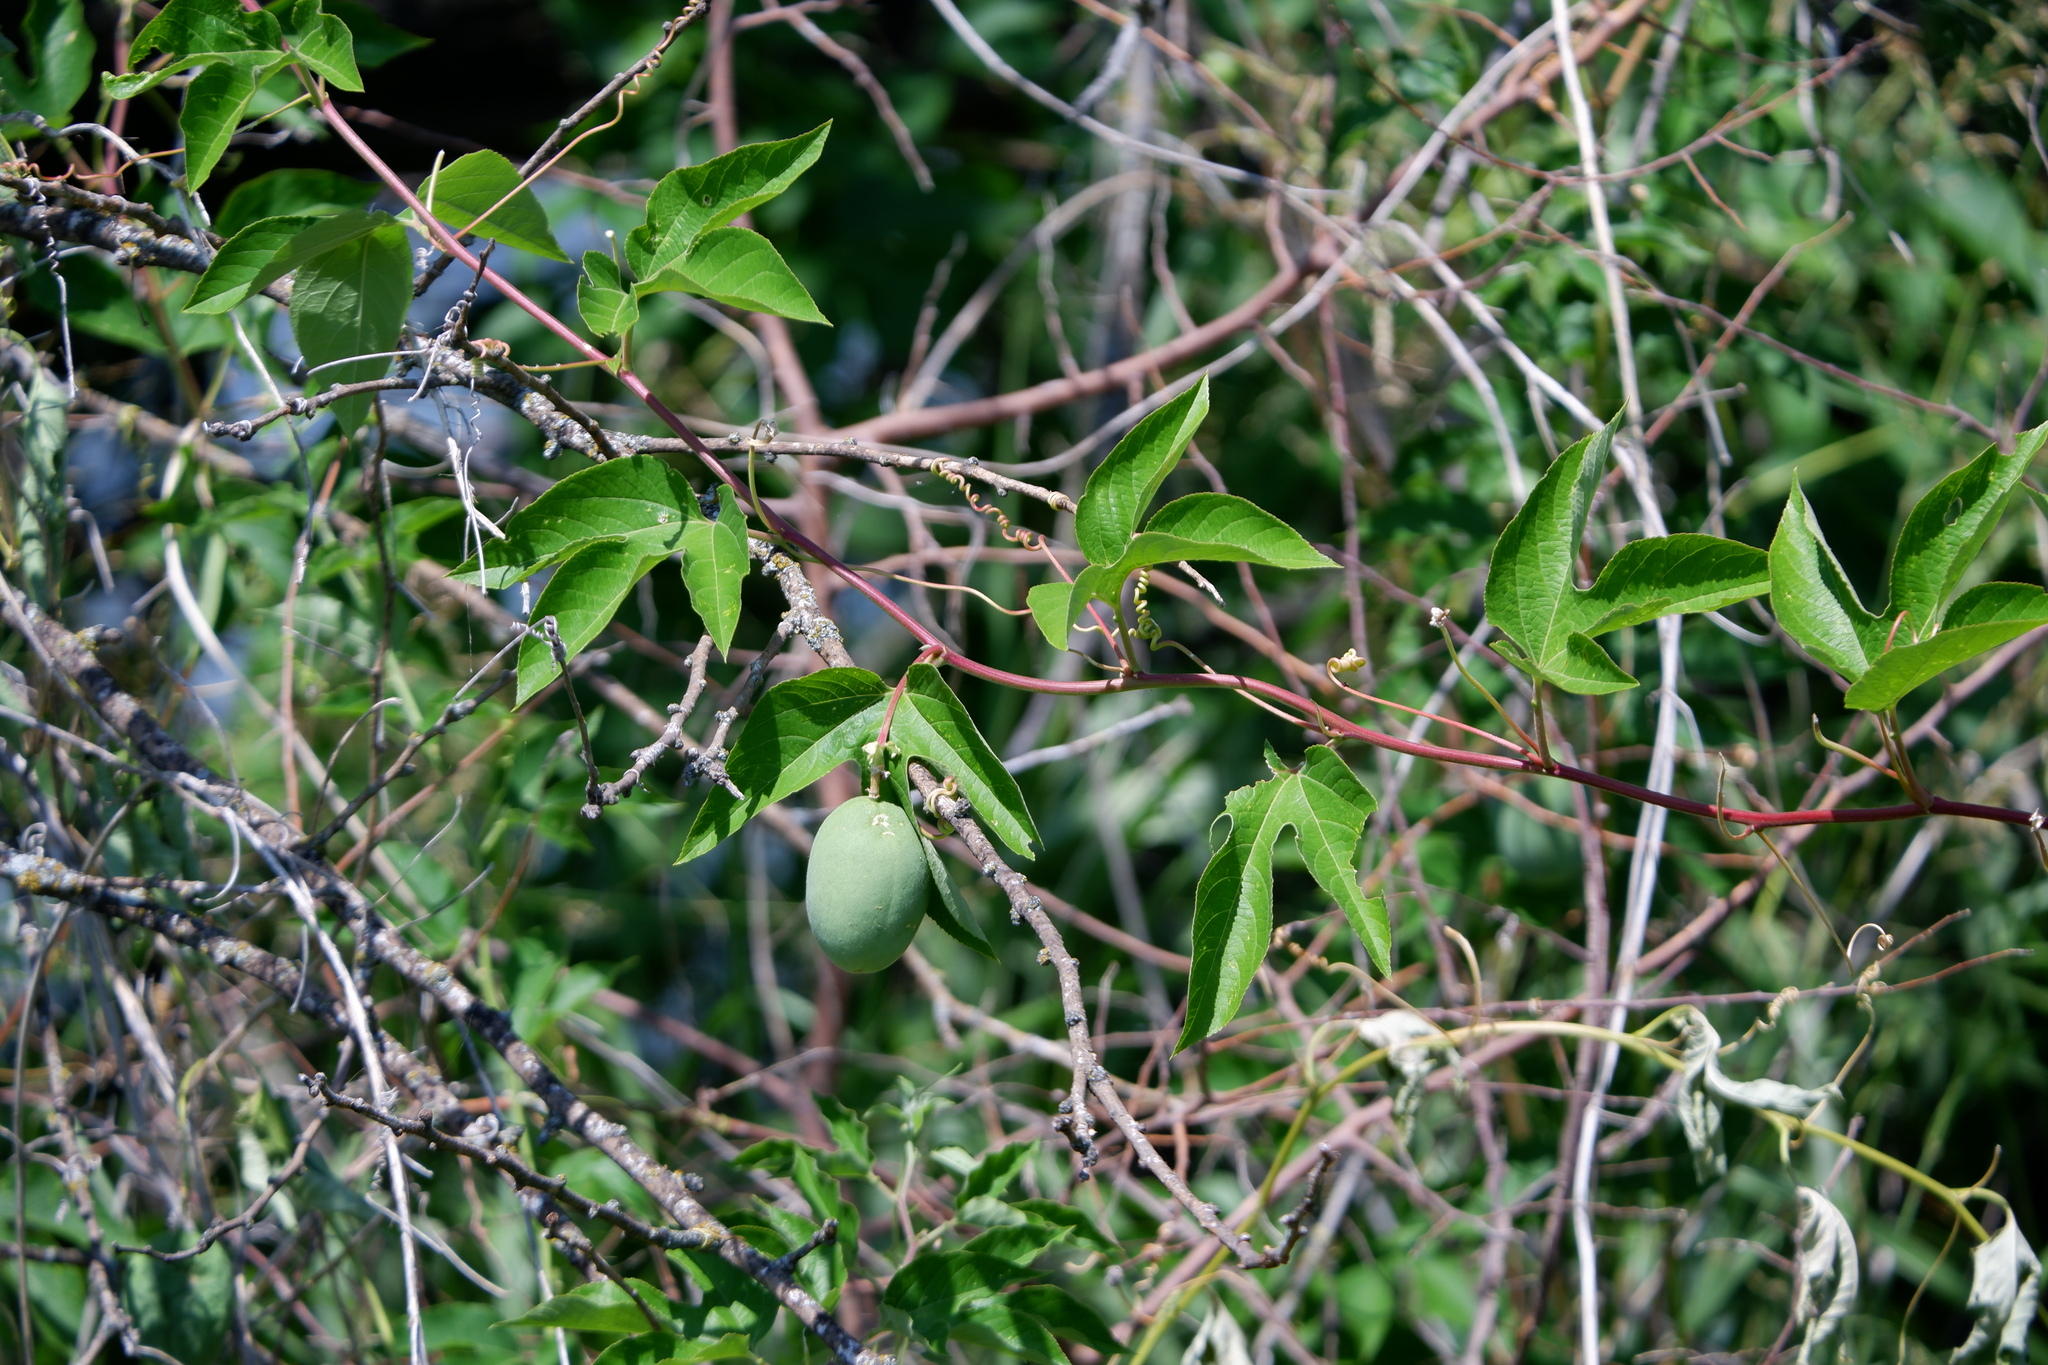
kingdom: Plantae
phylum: Tracheophyta
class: Magnoliopsida
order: Malpighiales
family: Passifloraceae
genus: Passiflora
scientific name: Passiflora incarnata
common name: Apricot-vine
